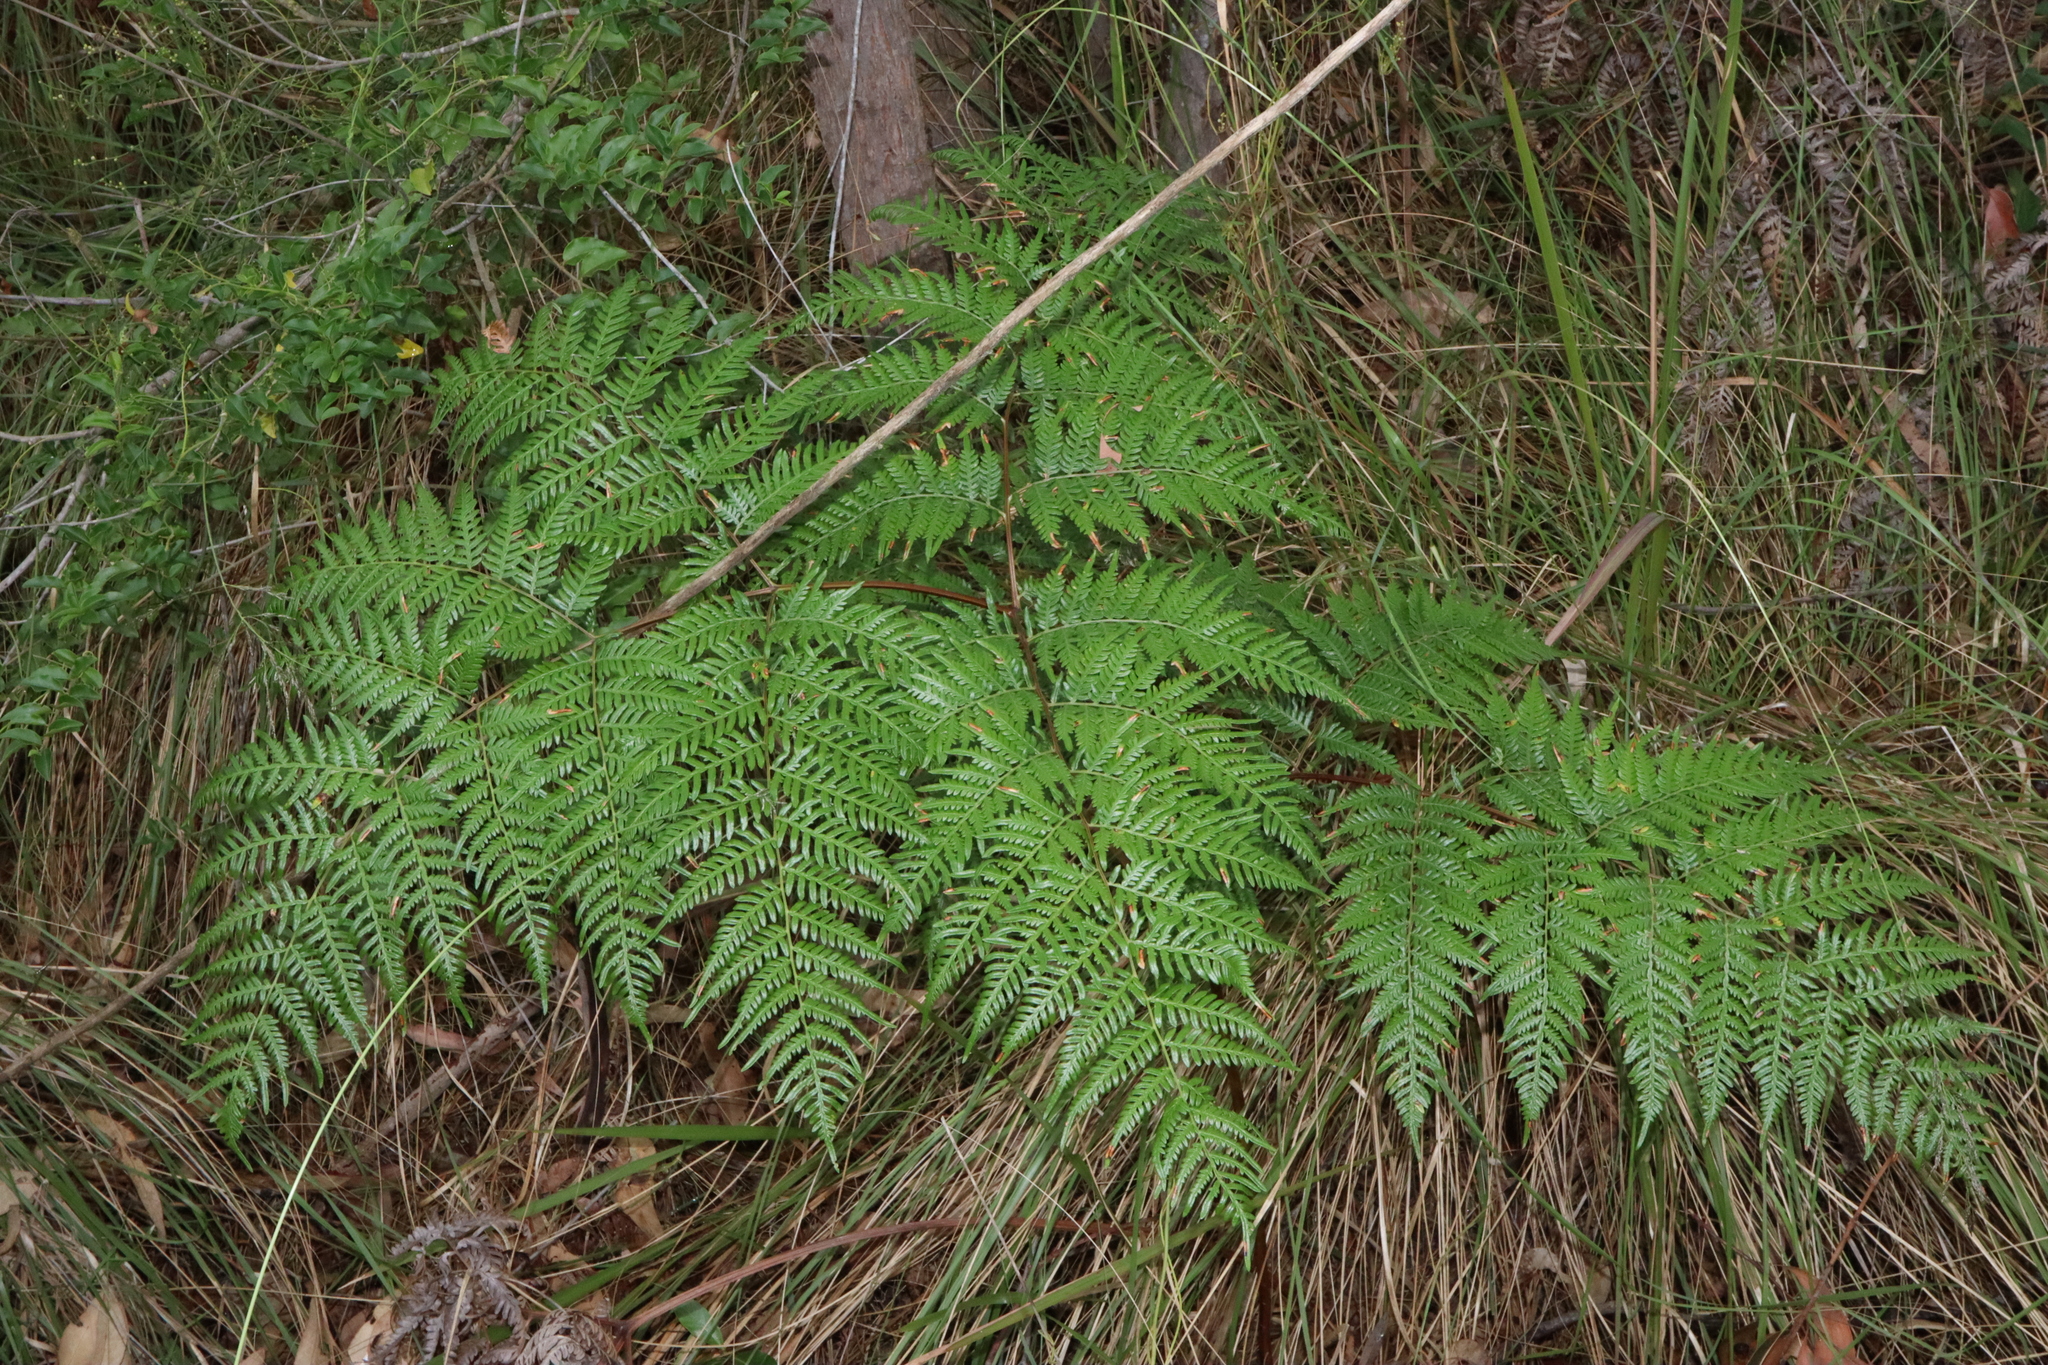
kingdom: Plantae
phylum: Tracheophyta
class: Polypodiopsida
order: Polypodiales
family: Dennstaedtiaceae
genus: Pteridium
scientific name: Pteridium esculentum
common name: Bracken fern
